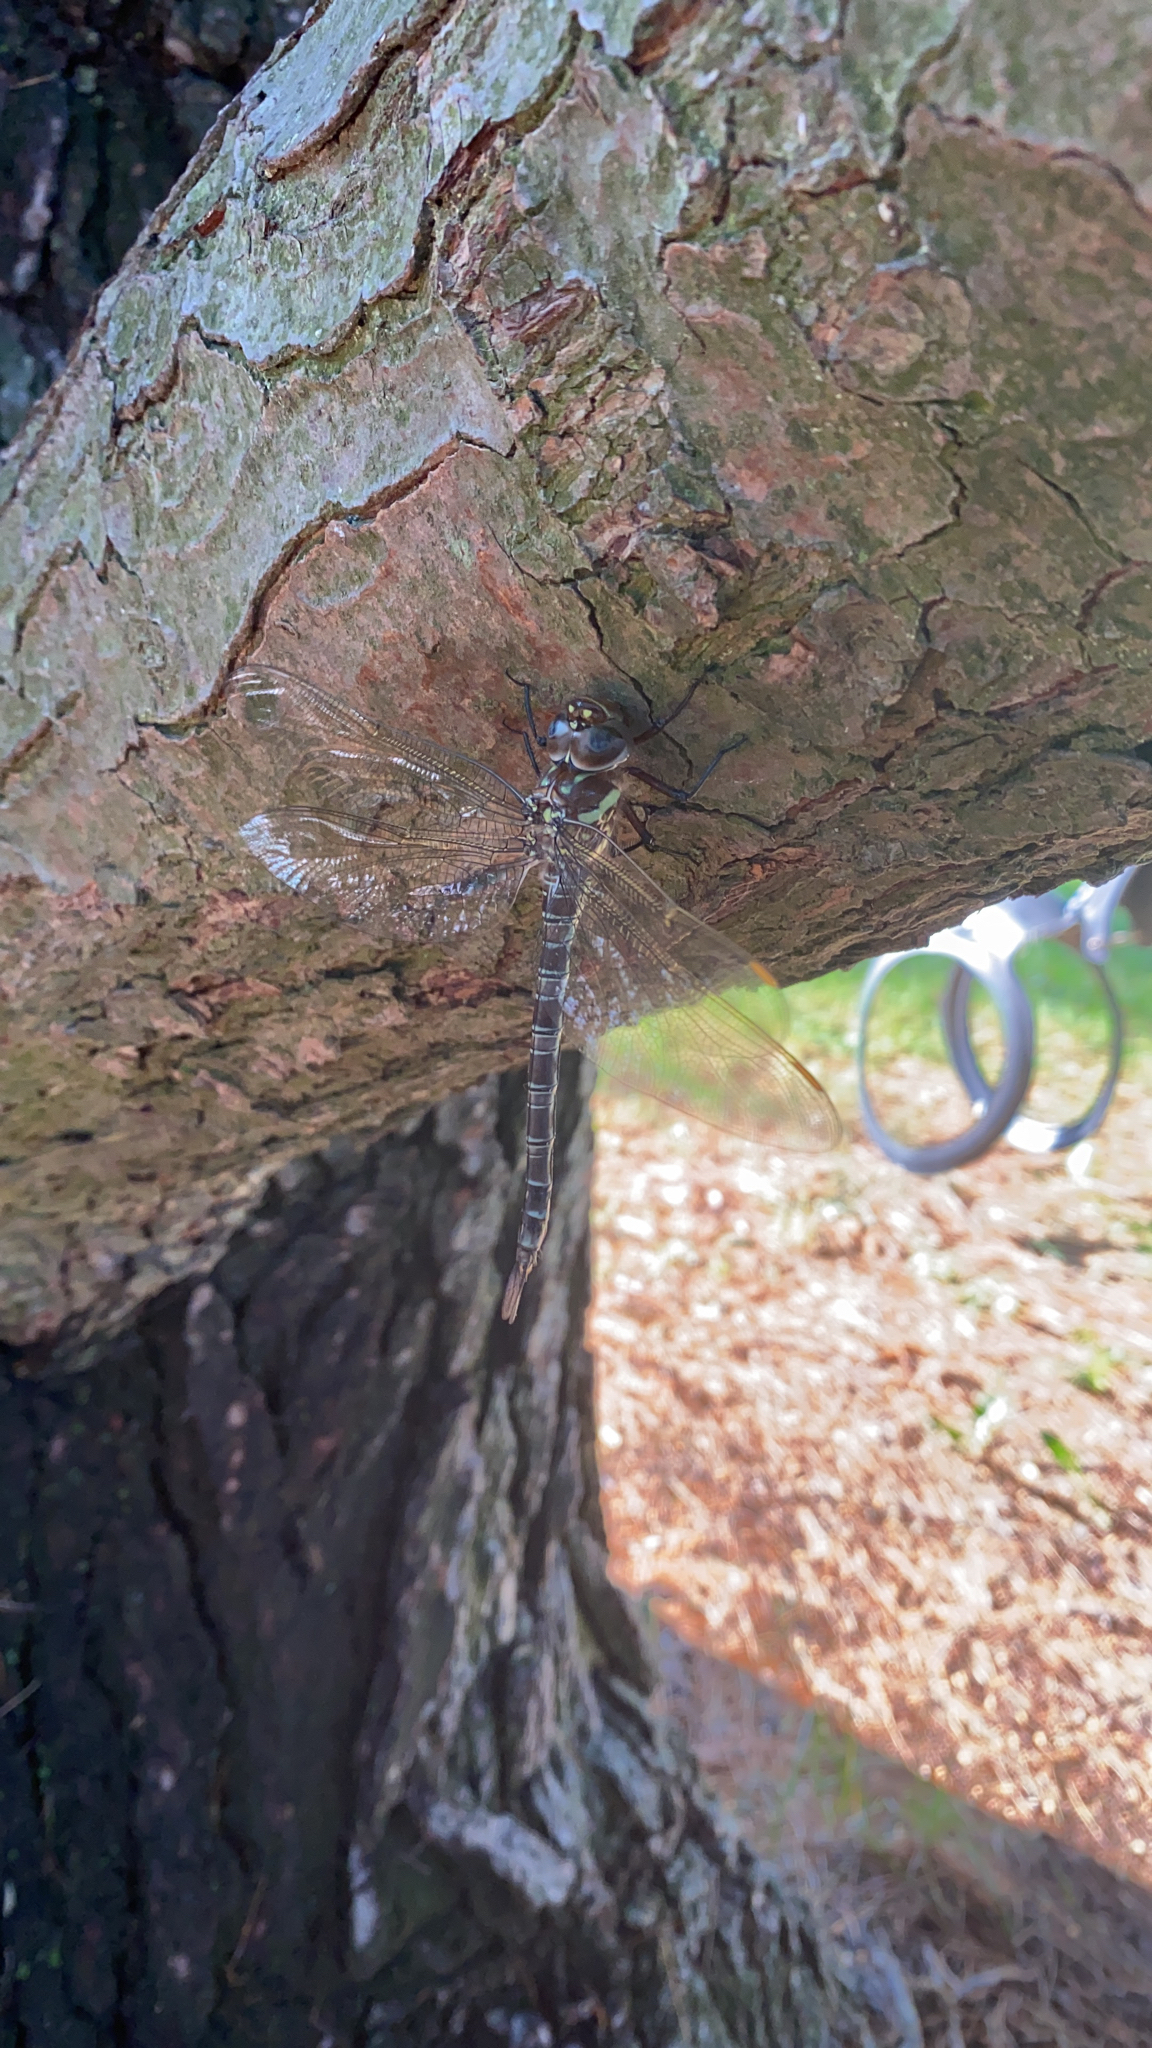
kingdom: Animalia
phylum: Arthropoda
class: Insecta
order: Odonata
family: Aeshnidae
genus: Epiaeschna
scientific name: Epiaeschna heros
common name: Swamp darner
